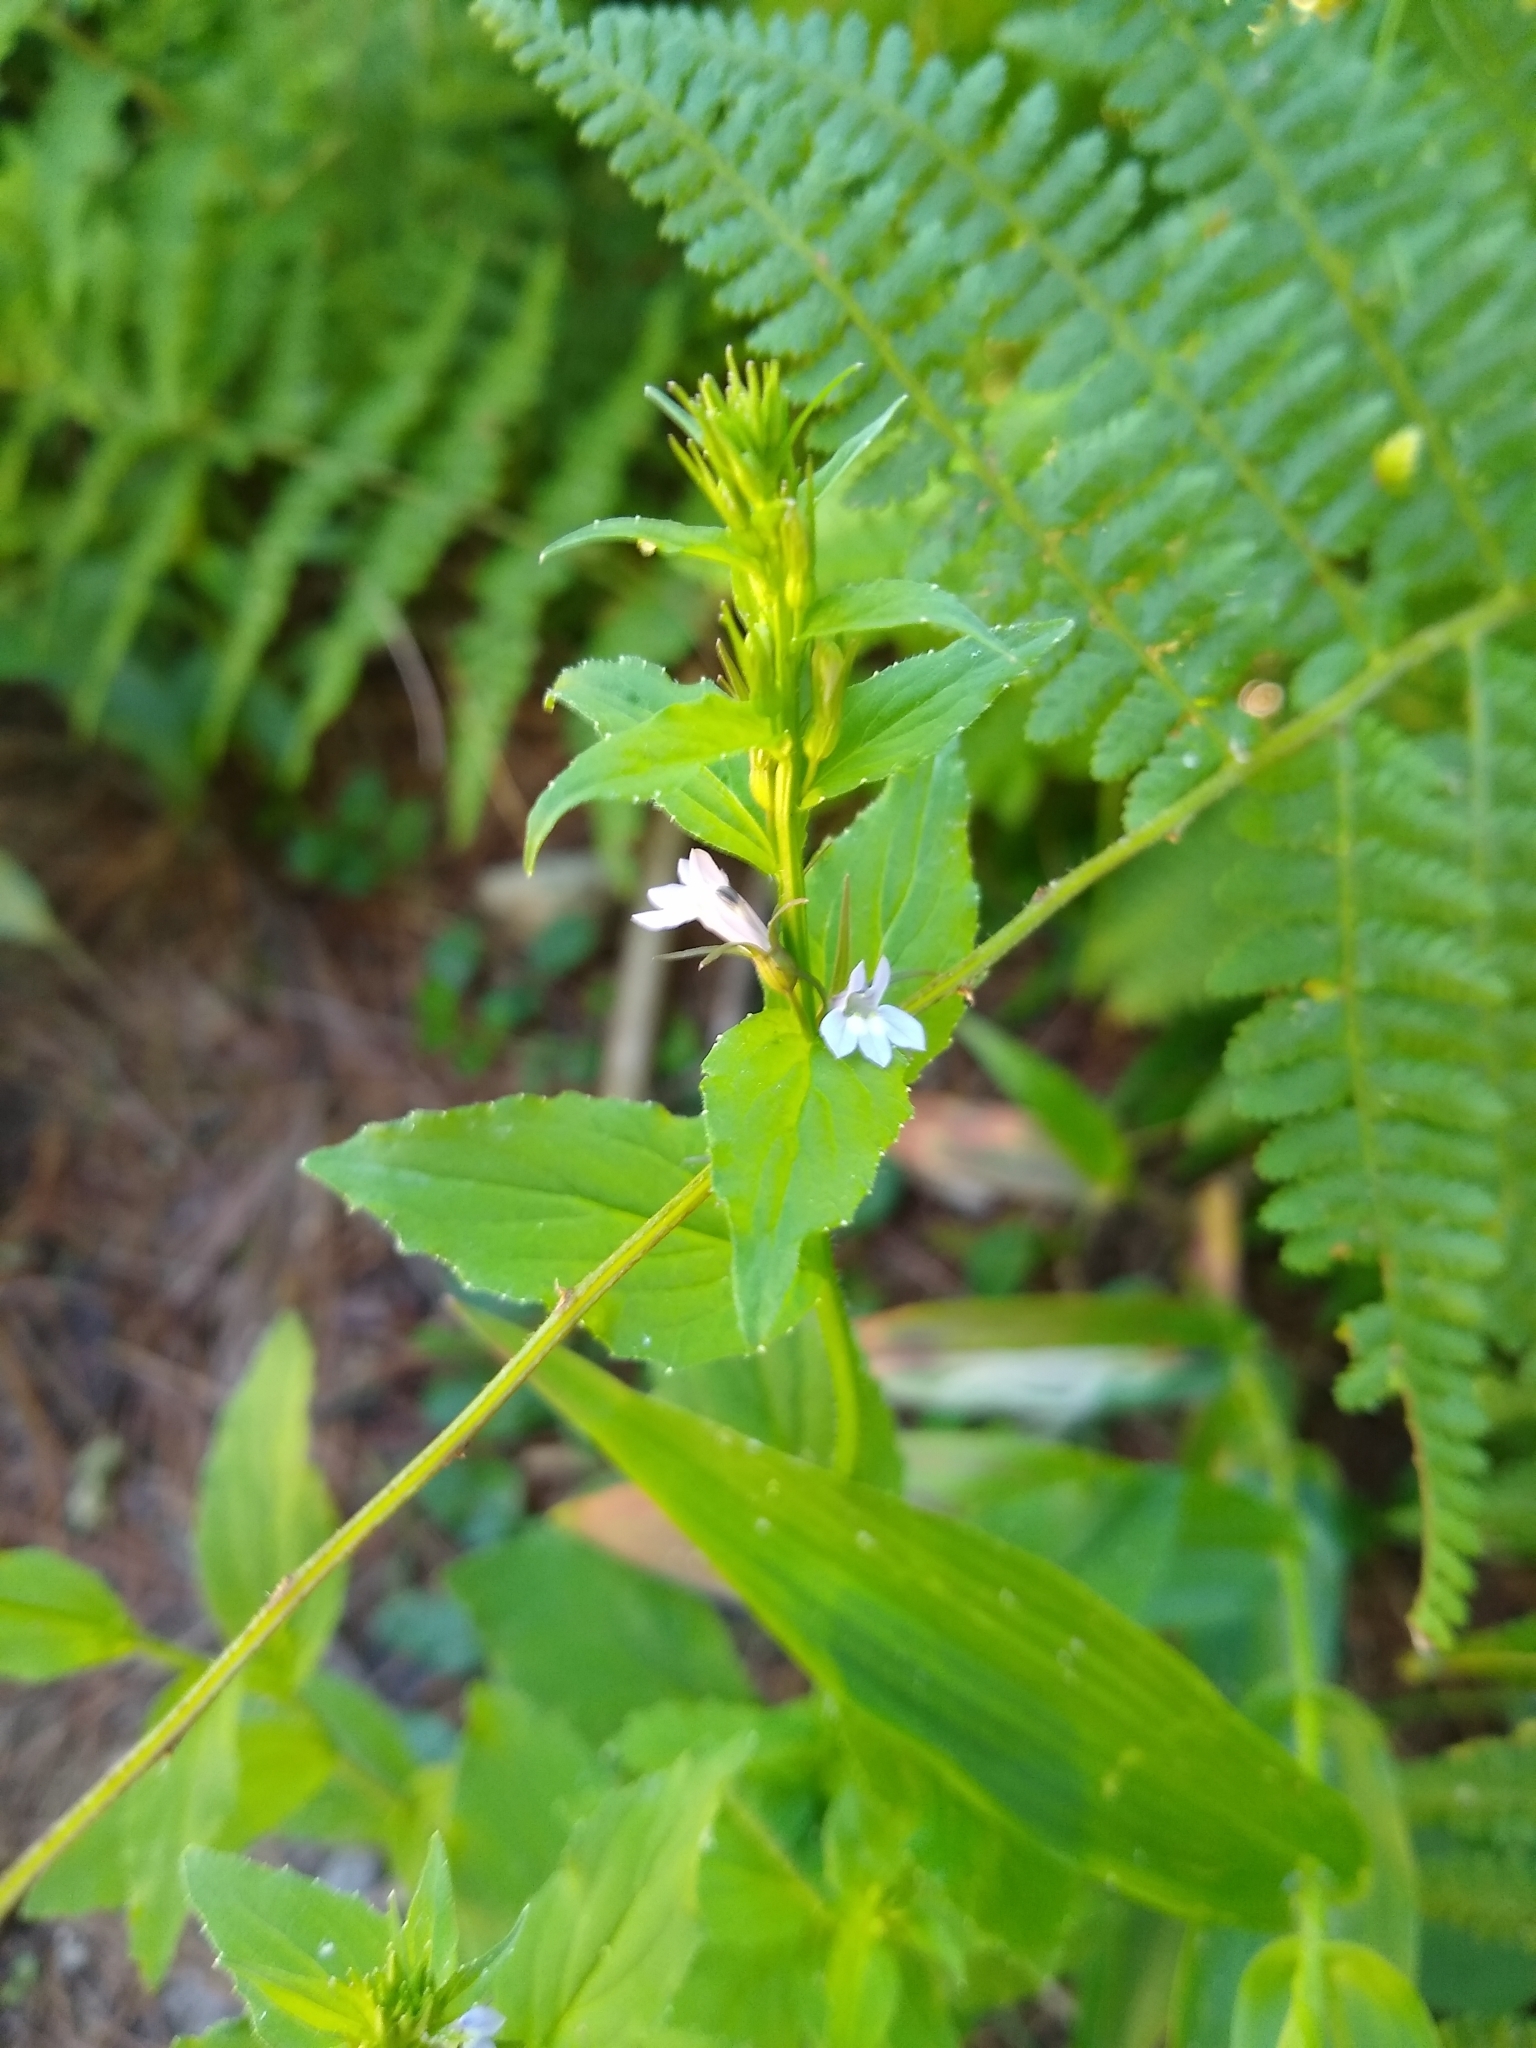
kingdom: Plantae
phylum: Tracheophyta
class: Magnoliopsida
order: Asterales
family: Campanulaceae
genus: Lobelia
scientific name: Lobelia inflata
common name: Indian tobacco
